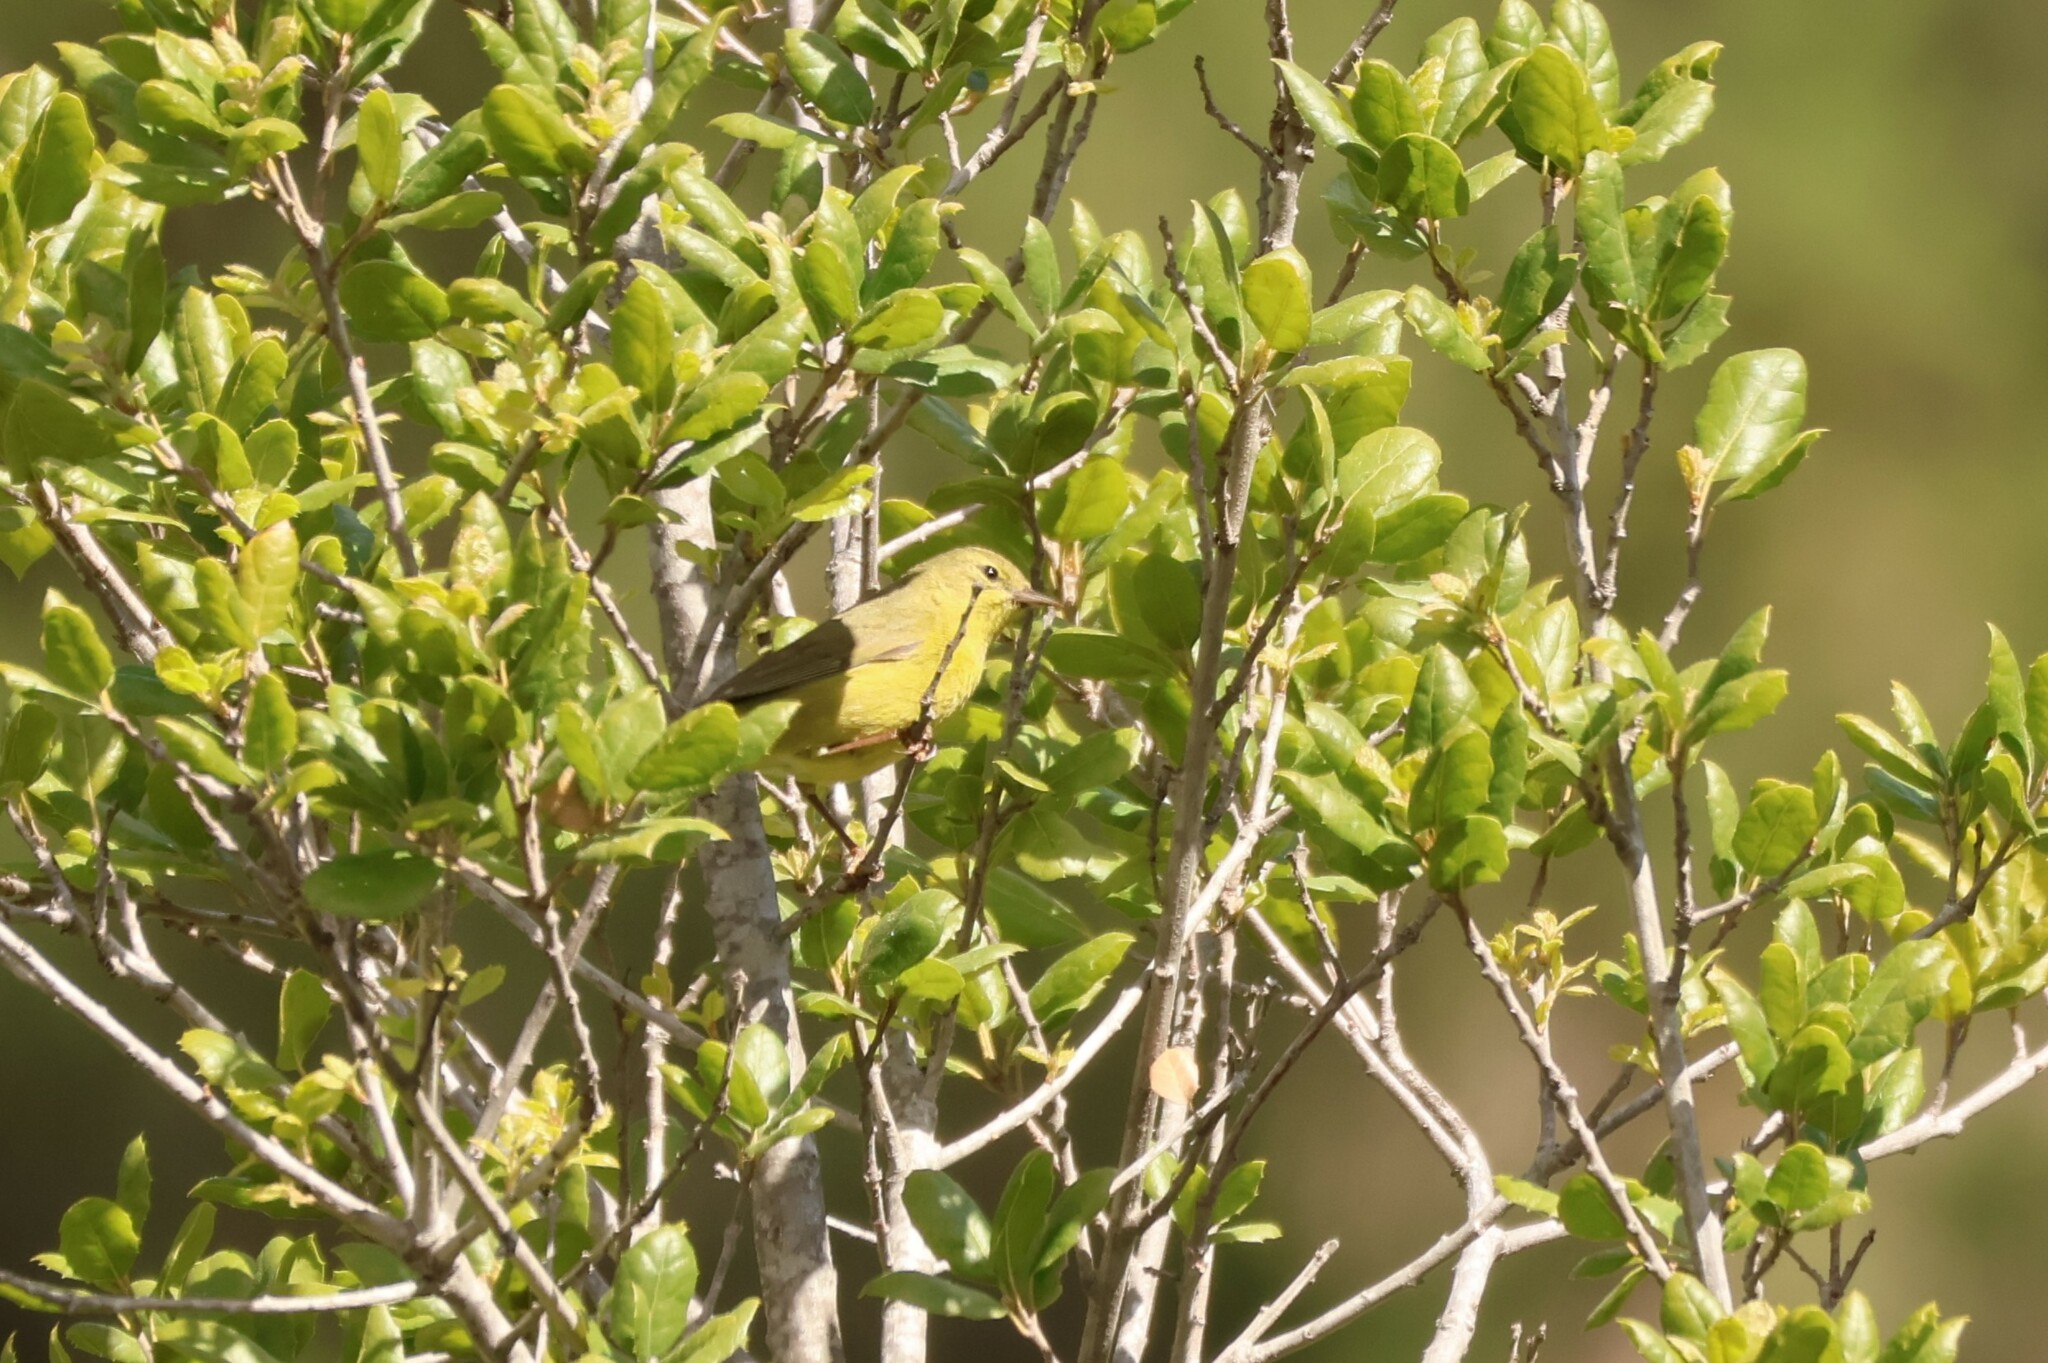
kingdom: Animalia
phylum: Chordata
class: Aves
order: Passeriformes
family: Parulidae
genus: Leiothlypis
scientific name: Leiothlypis celata
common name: Orange-crowned warbler
